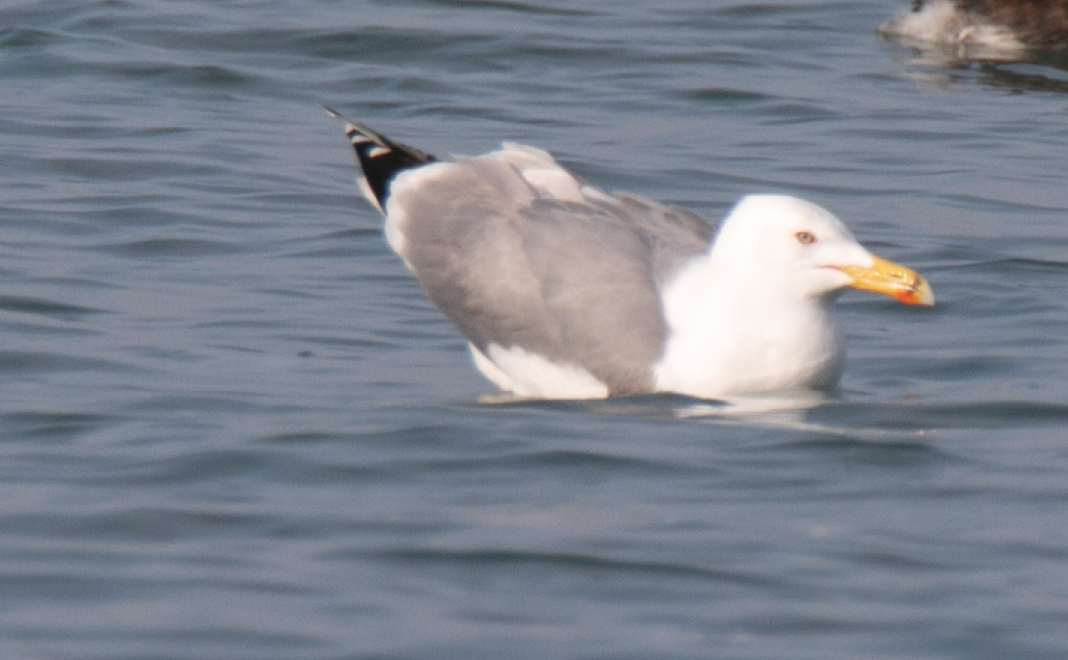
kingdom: Animalia
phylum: Chordata
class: Aves
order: Charadriiformes
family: Laridae
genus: Larus
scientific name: Larus michahellis
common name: Yellow-legged gull
